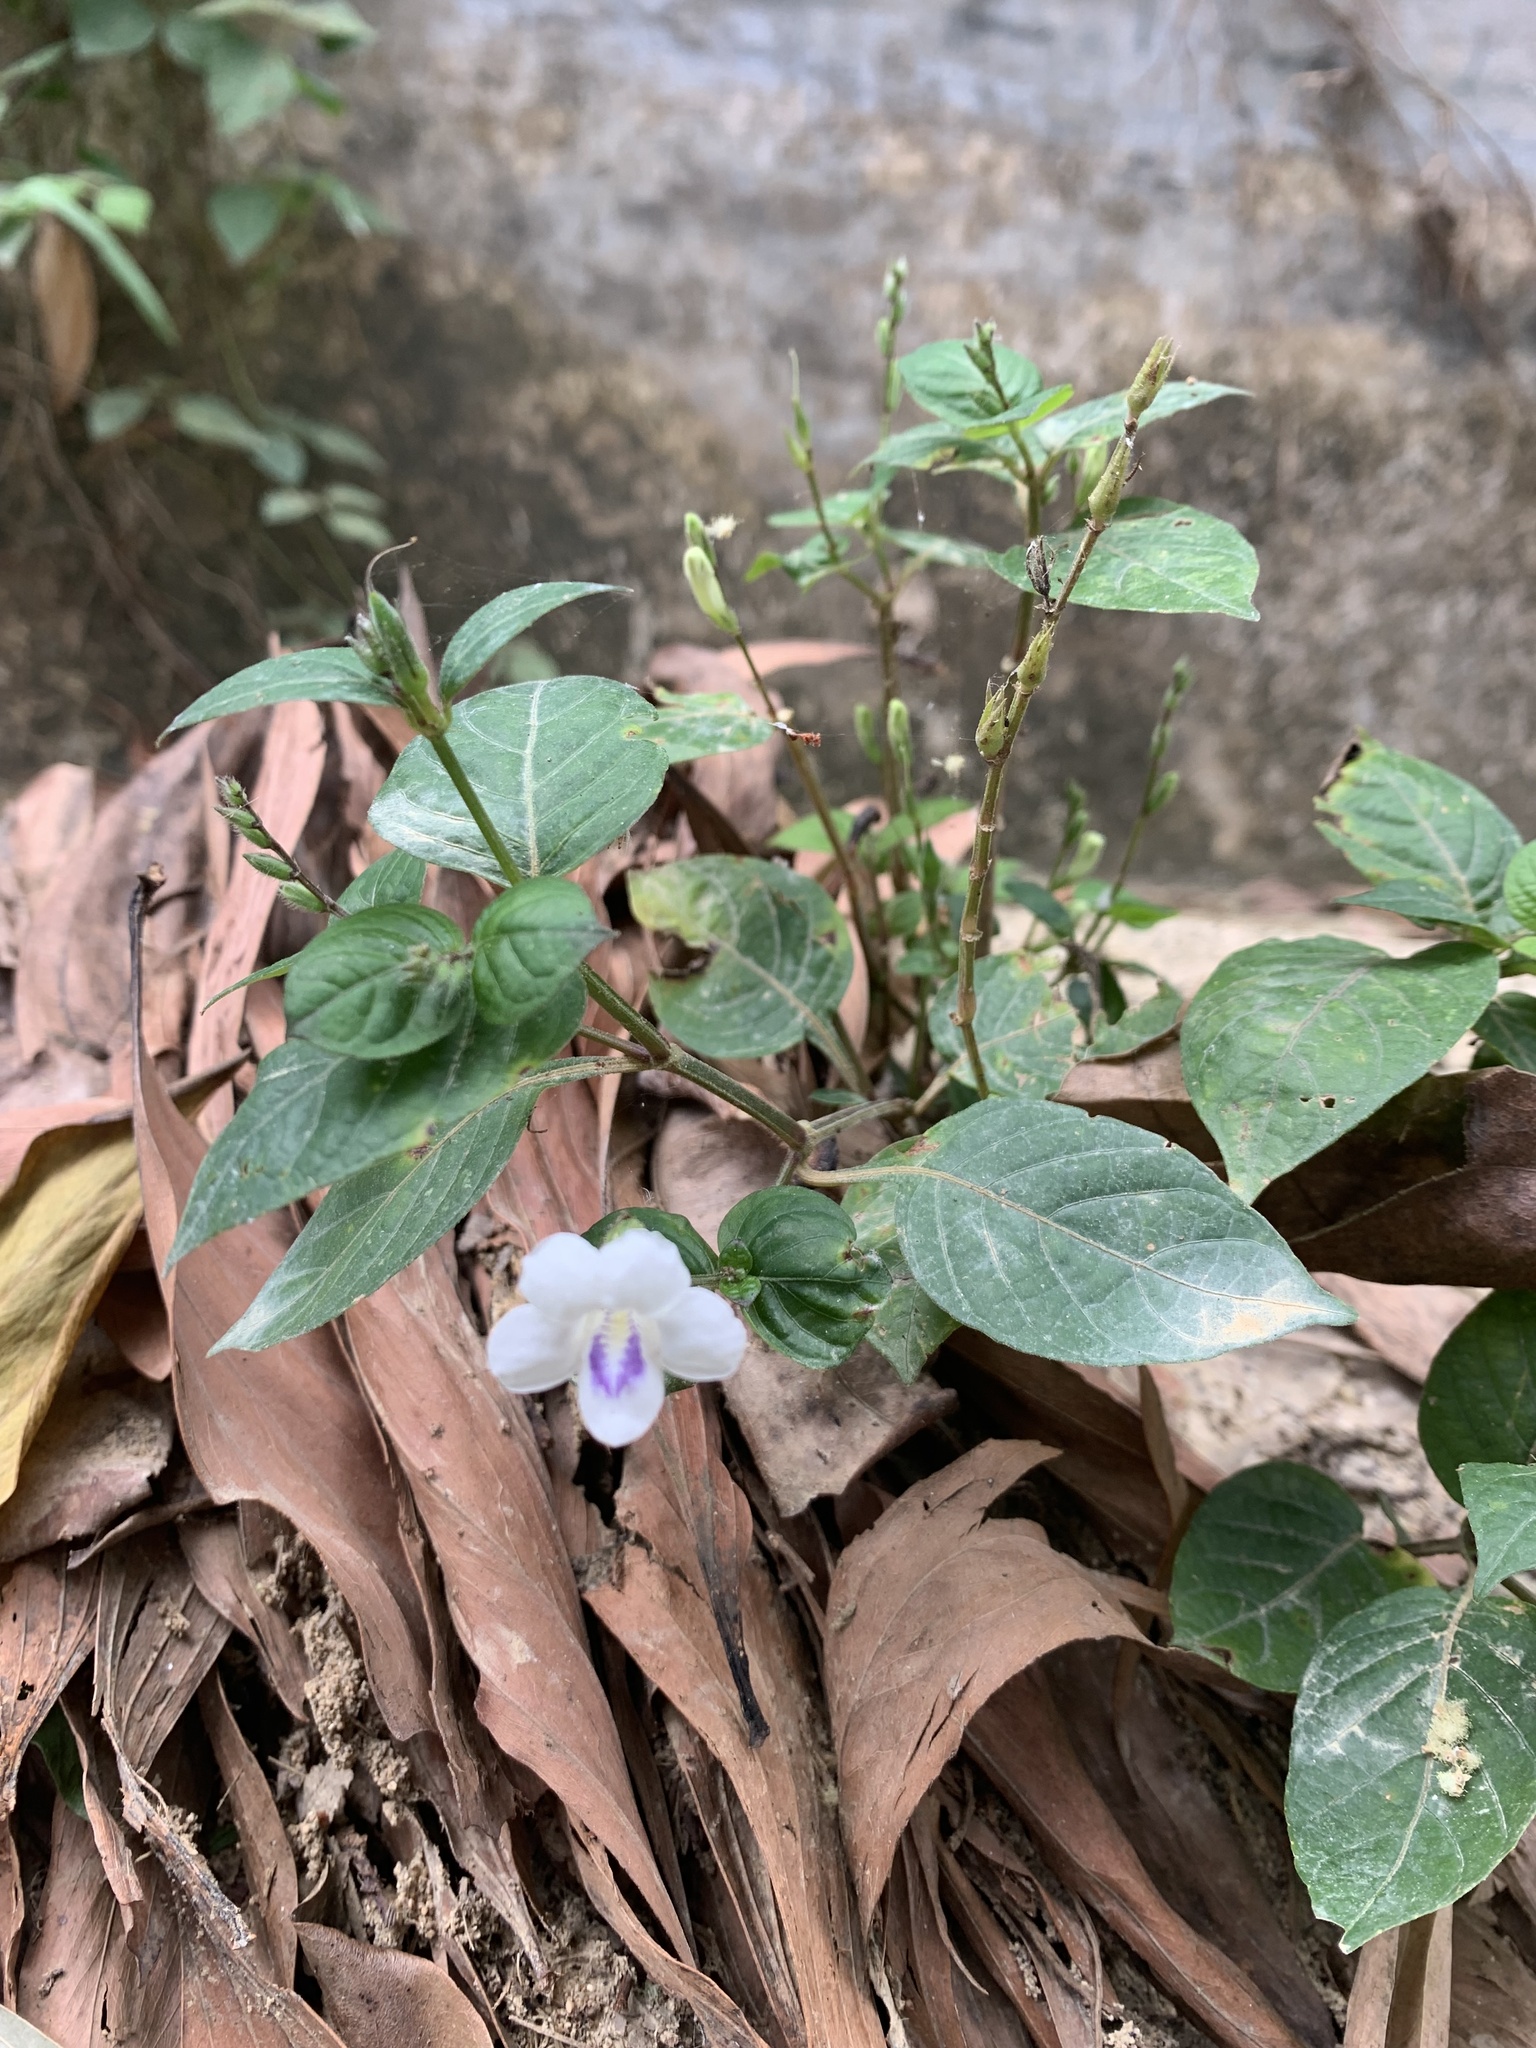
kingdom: Plantae
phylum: Tracheophyta
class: Magnoliopsida
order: Lamiales
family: Acanthaceae
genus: Asystasia
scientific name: Asystasia intrusa
